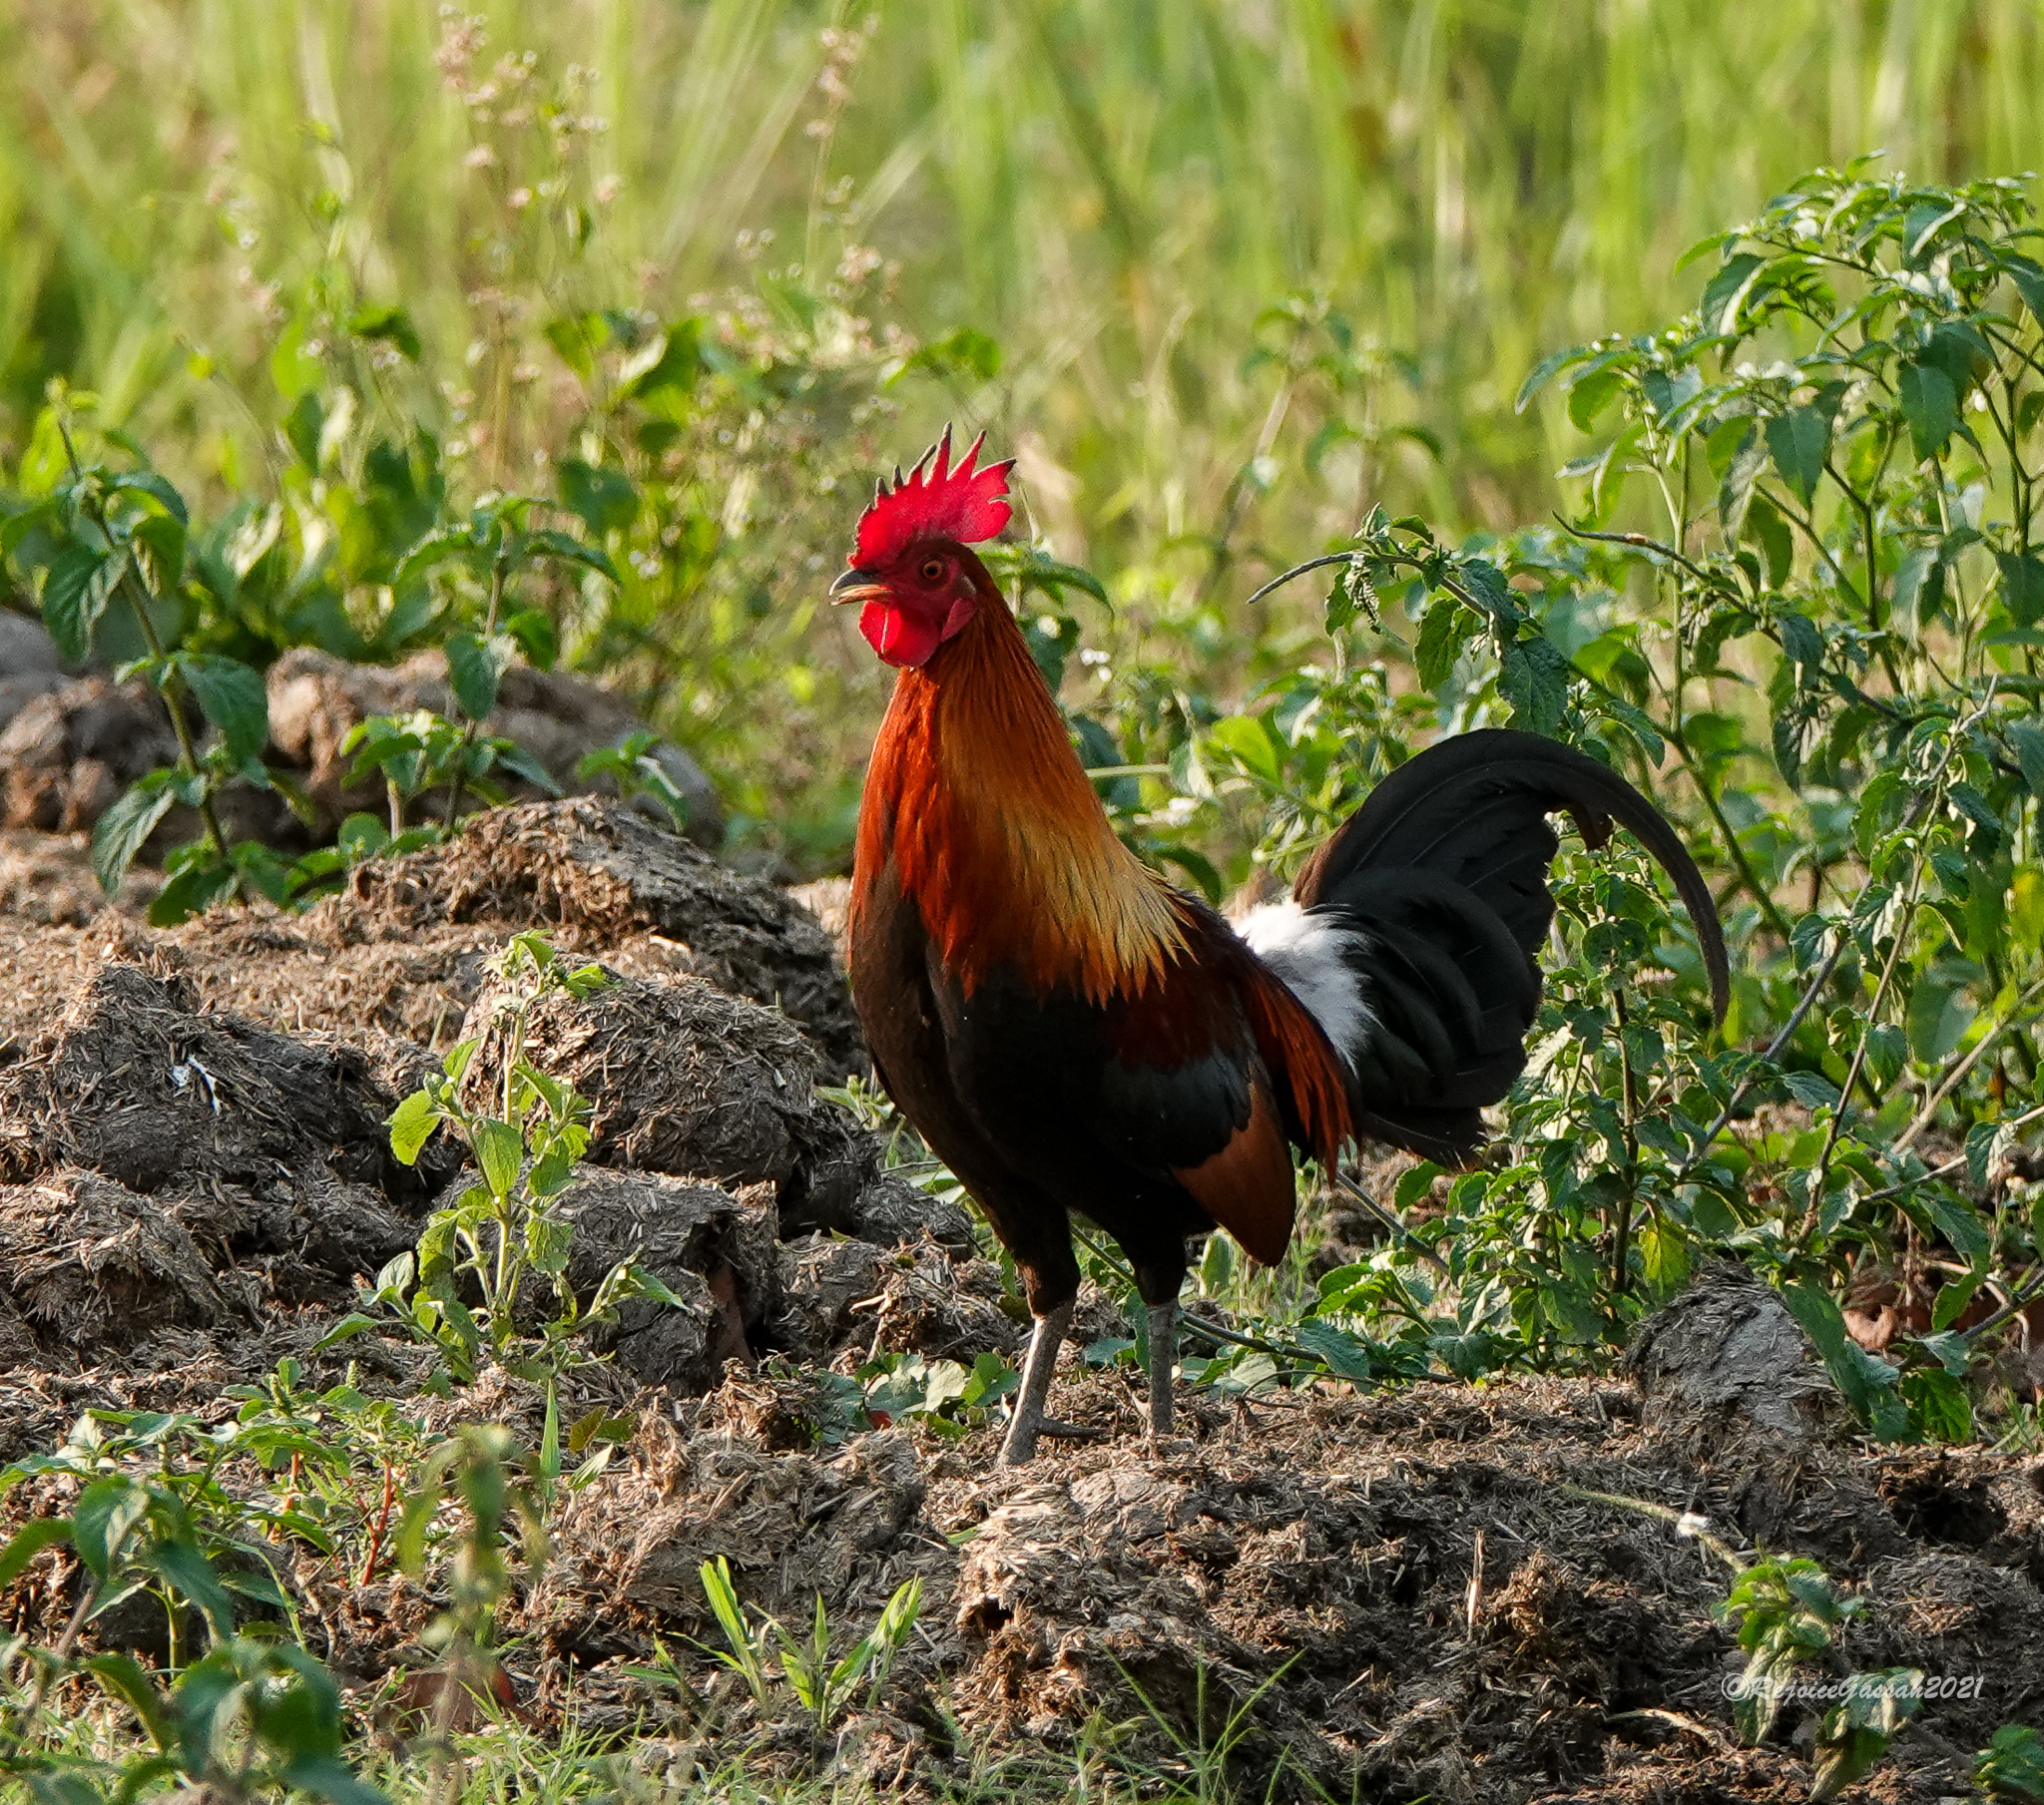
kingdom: Animalia
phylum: Chordata
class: Aves
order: Galliformes
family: Phasianidae
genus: Gallus
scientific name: Gallus gallus
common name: Red junglefowl
